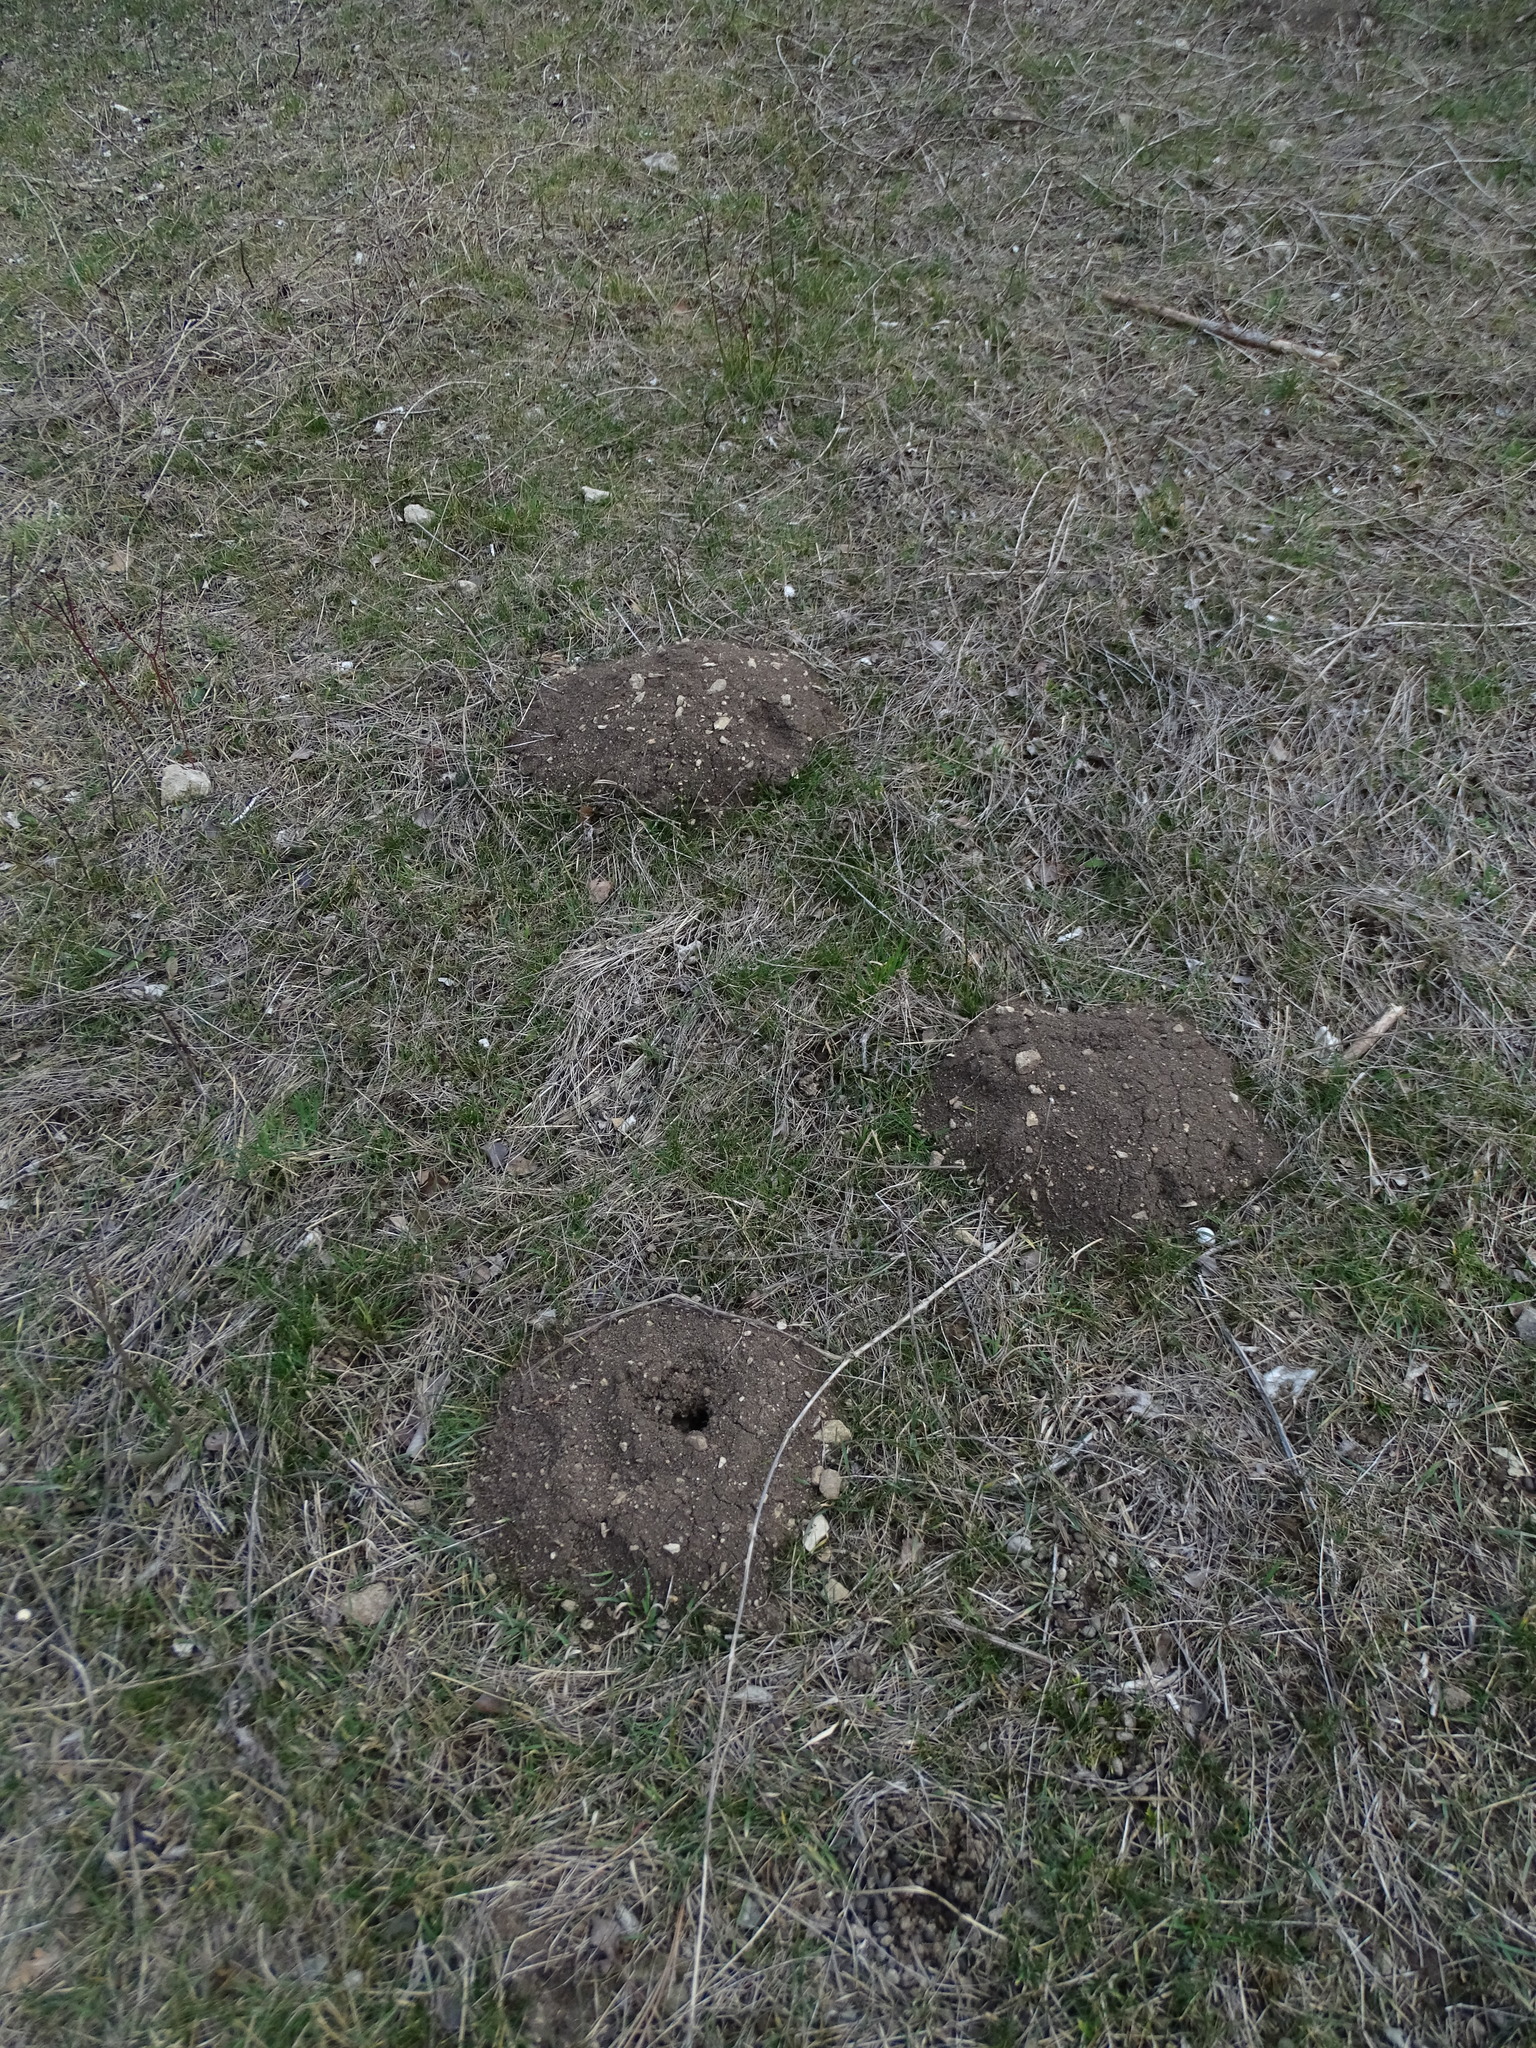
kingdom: Animalia
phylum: Chordata
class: Mammalia
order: Soricomorpha
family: Talpidae
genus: Talpa
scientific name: Talpa europaea
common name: European mole
